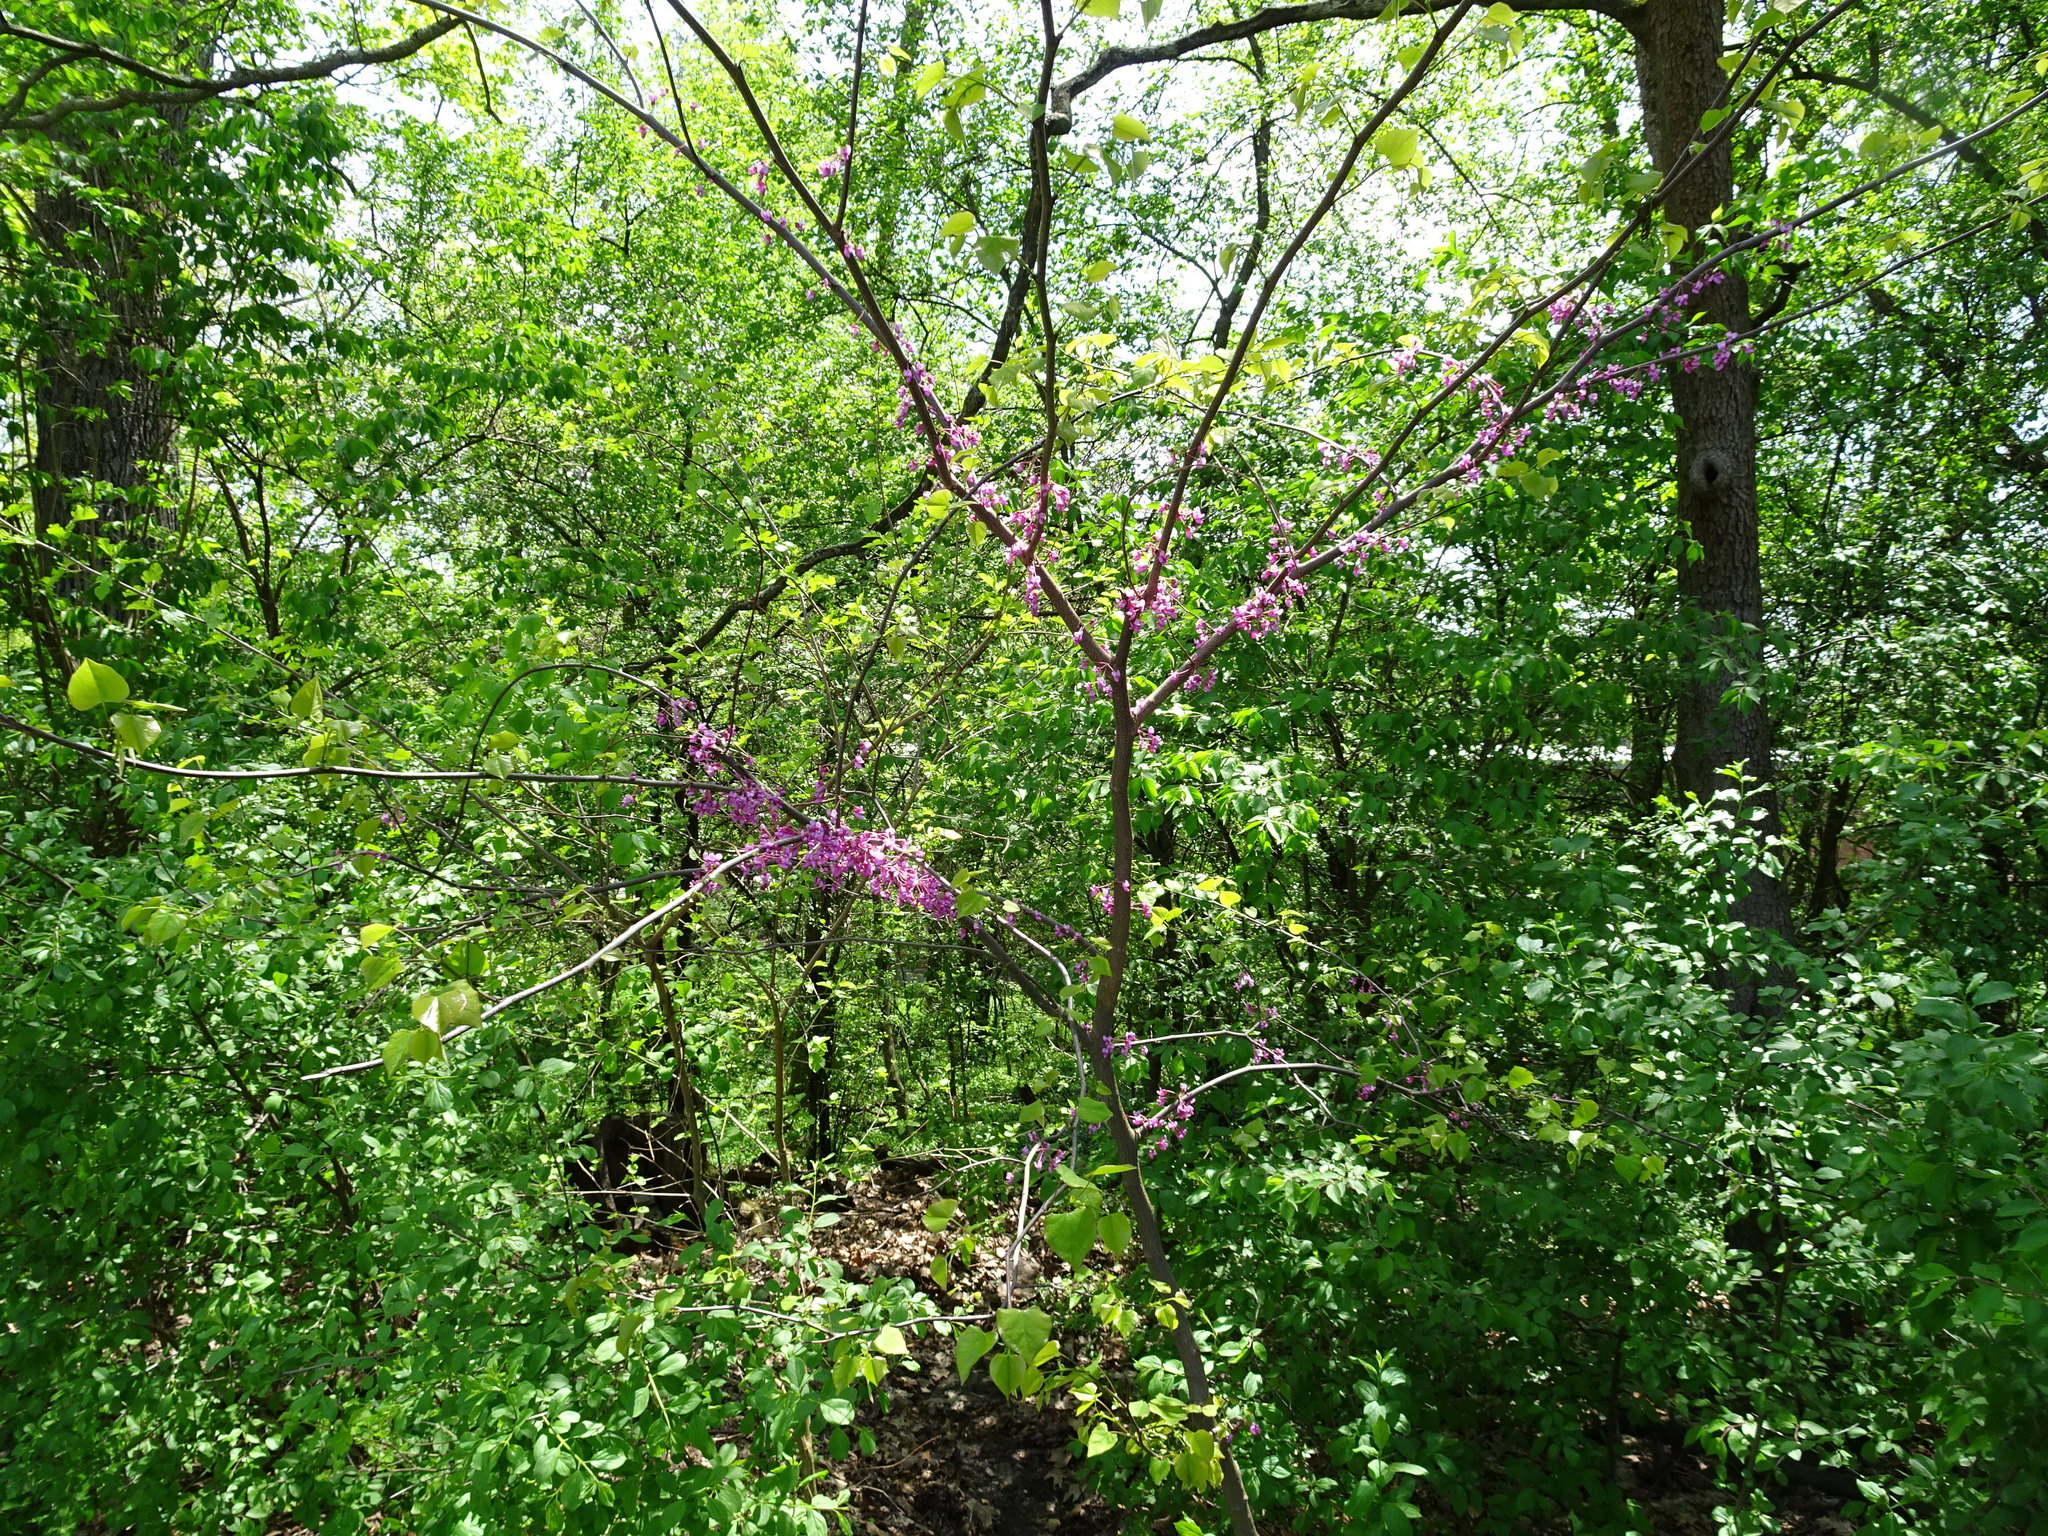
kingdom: Plantae
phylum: Tracheophyta
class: Magnoliopsida
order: Fabales
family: Fabaceae
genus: Cercis
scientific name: Cercis canadensis
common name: Eastern redbud
